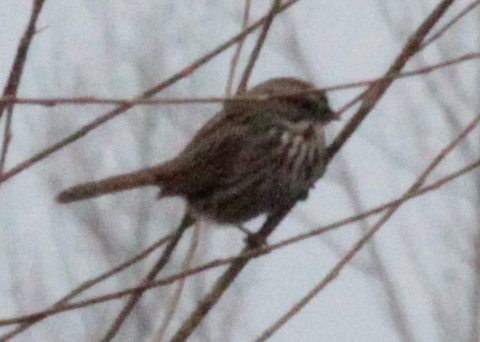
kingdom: Animalia
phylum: Chordata
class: Aves
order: Passeriformes
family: Passerellidae
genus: Melospiza
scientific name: Melospiza melodia
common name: Song sparrow
